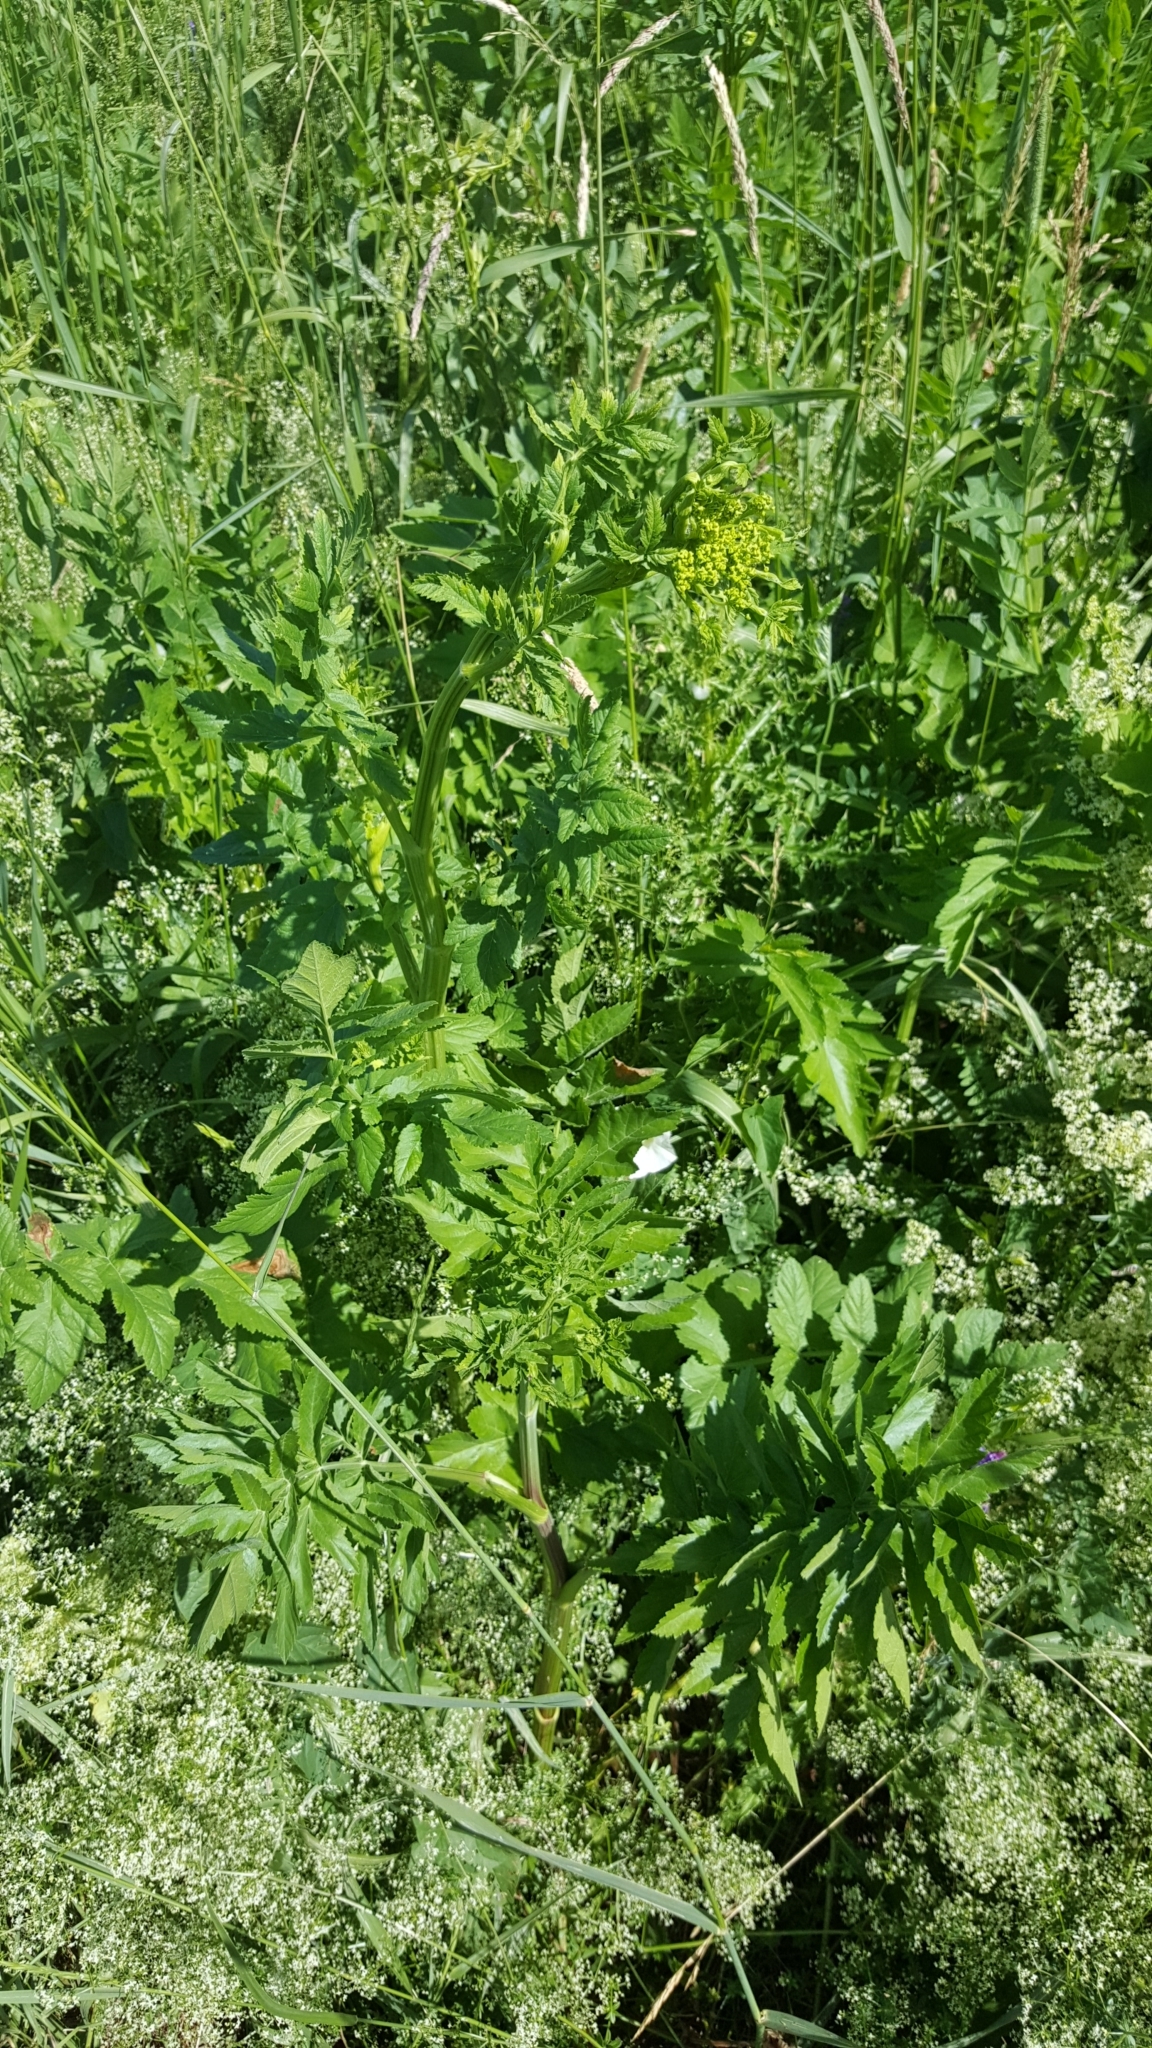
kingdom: Plantae
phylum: Tracheophyta
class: Magnoliopsida
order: Apiales
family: Apiaceae
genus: Pastinaca
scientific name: Pastinaca sativa
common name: Wild parsnip
